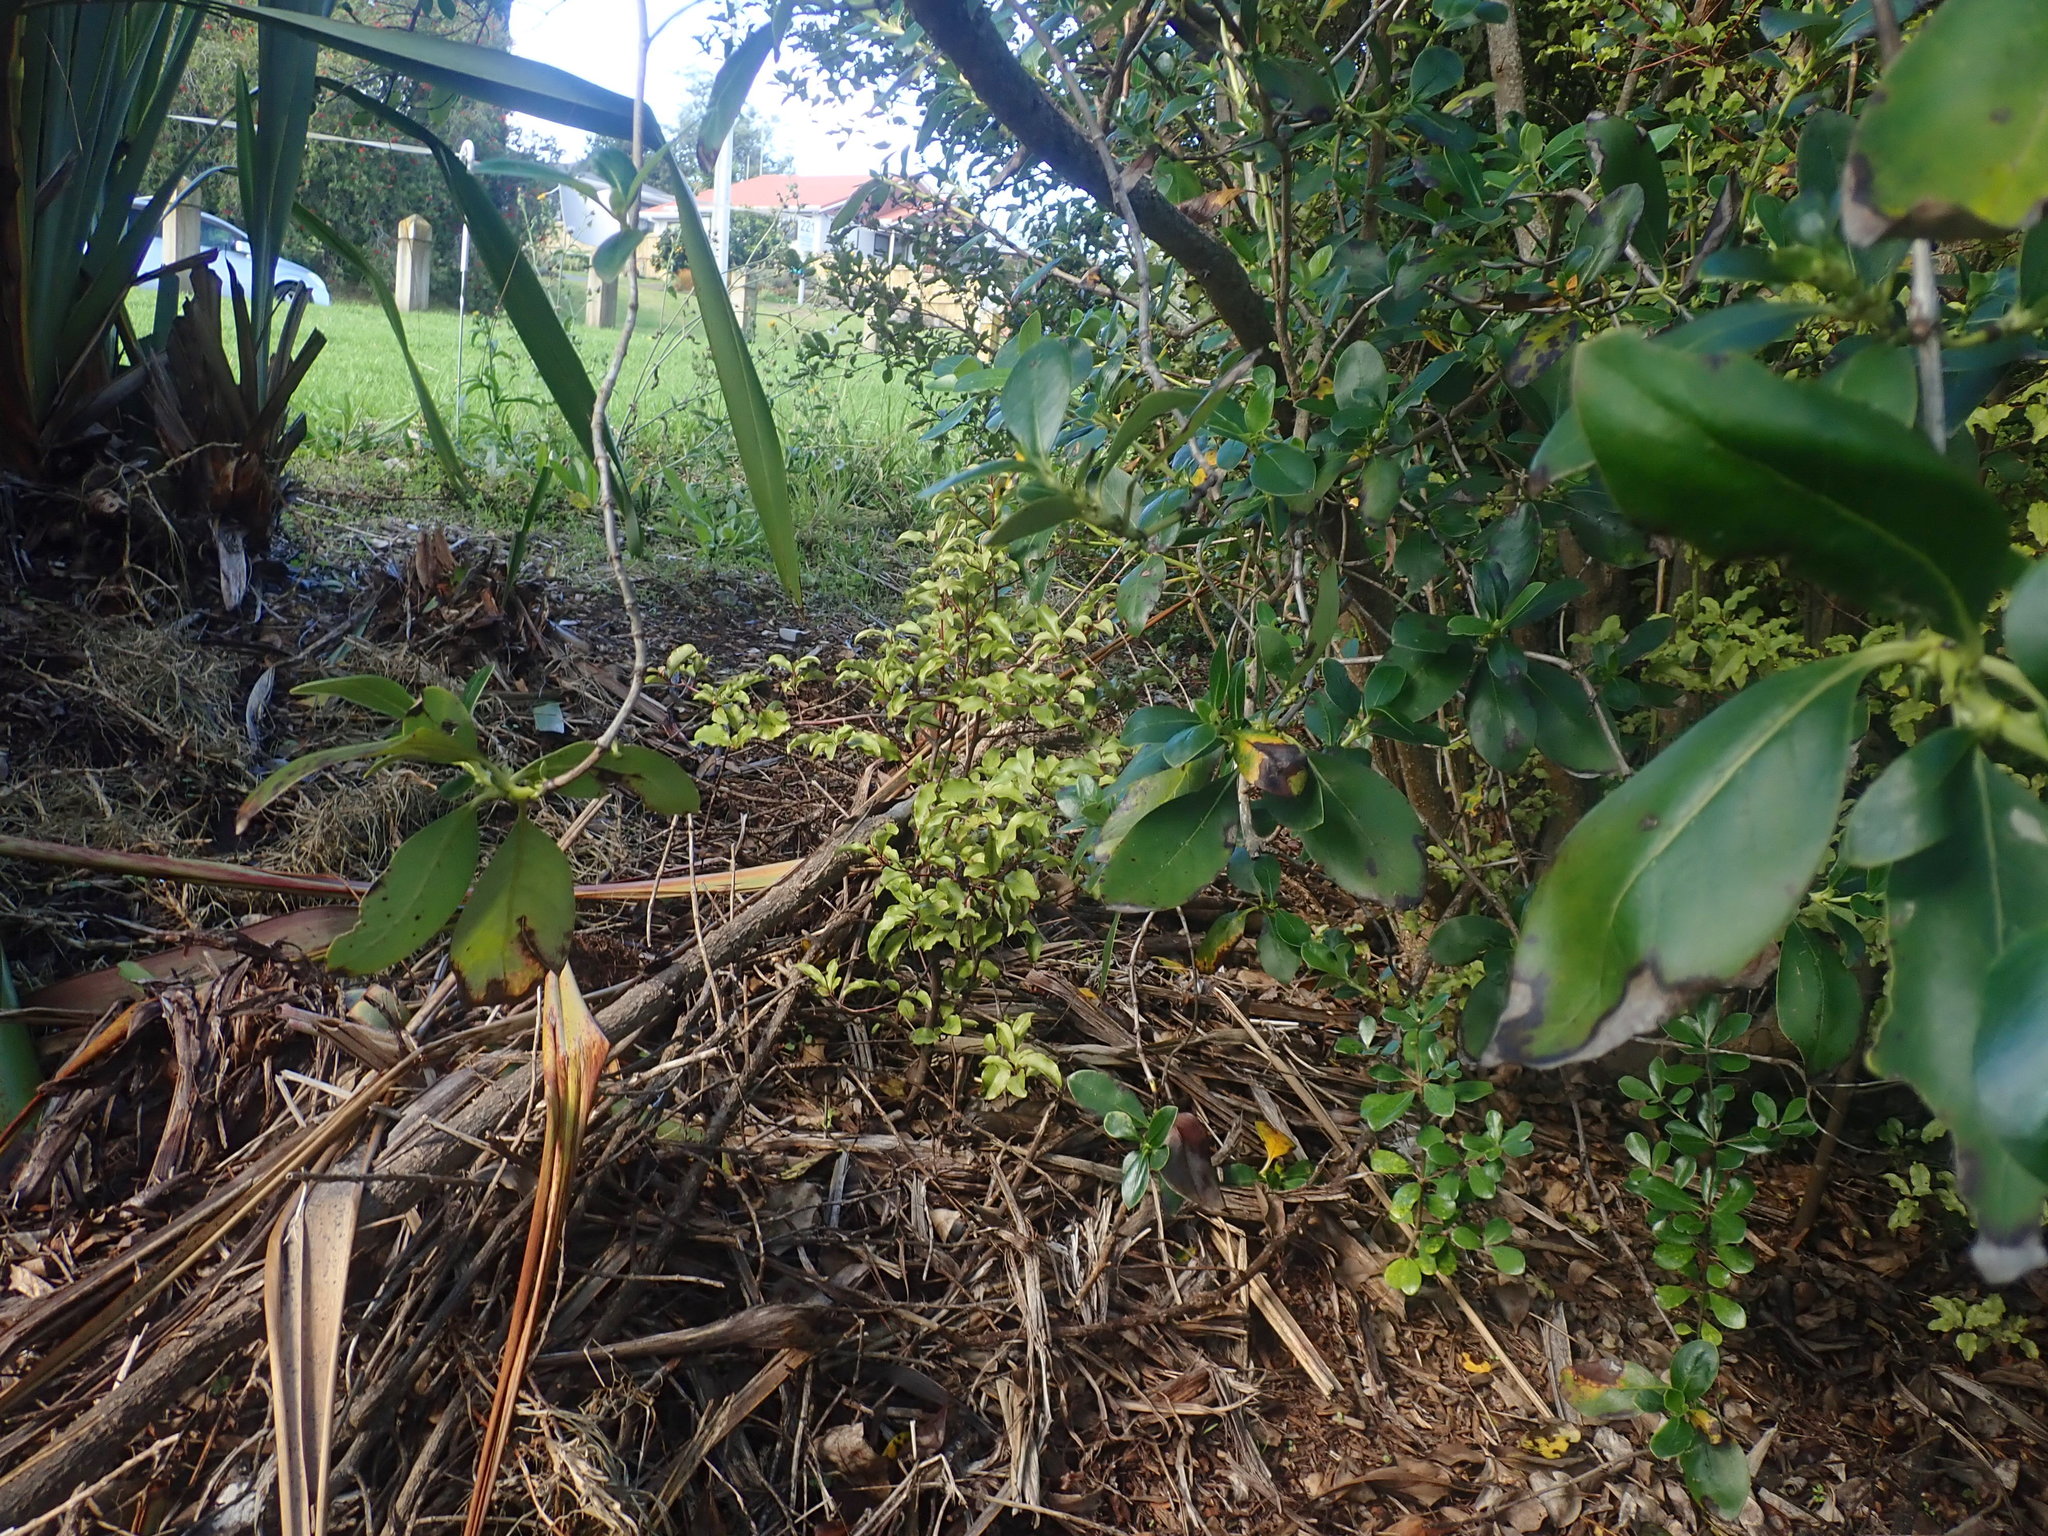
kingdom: Plantae
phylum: Tracheophyta
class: Magnoliopsida
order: Ericales
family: Primulaceae
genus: Myrsine
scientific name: Myrsine australis
